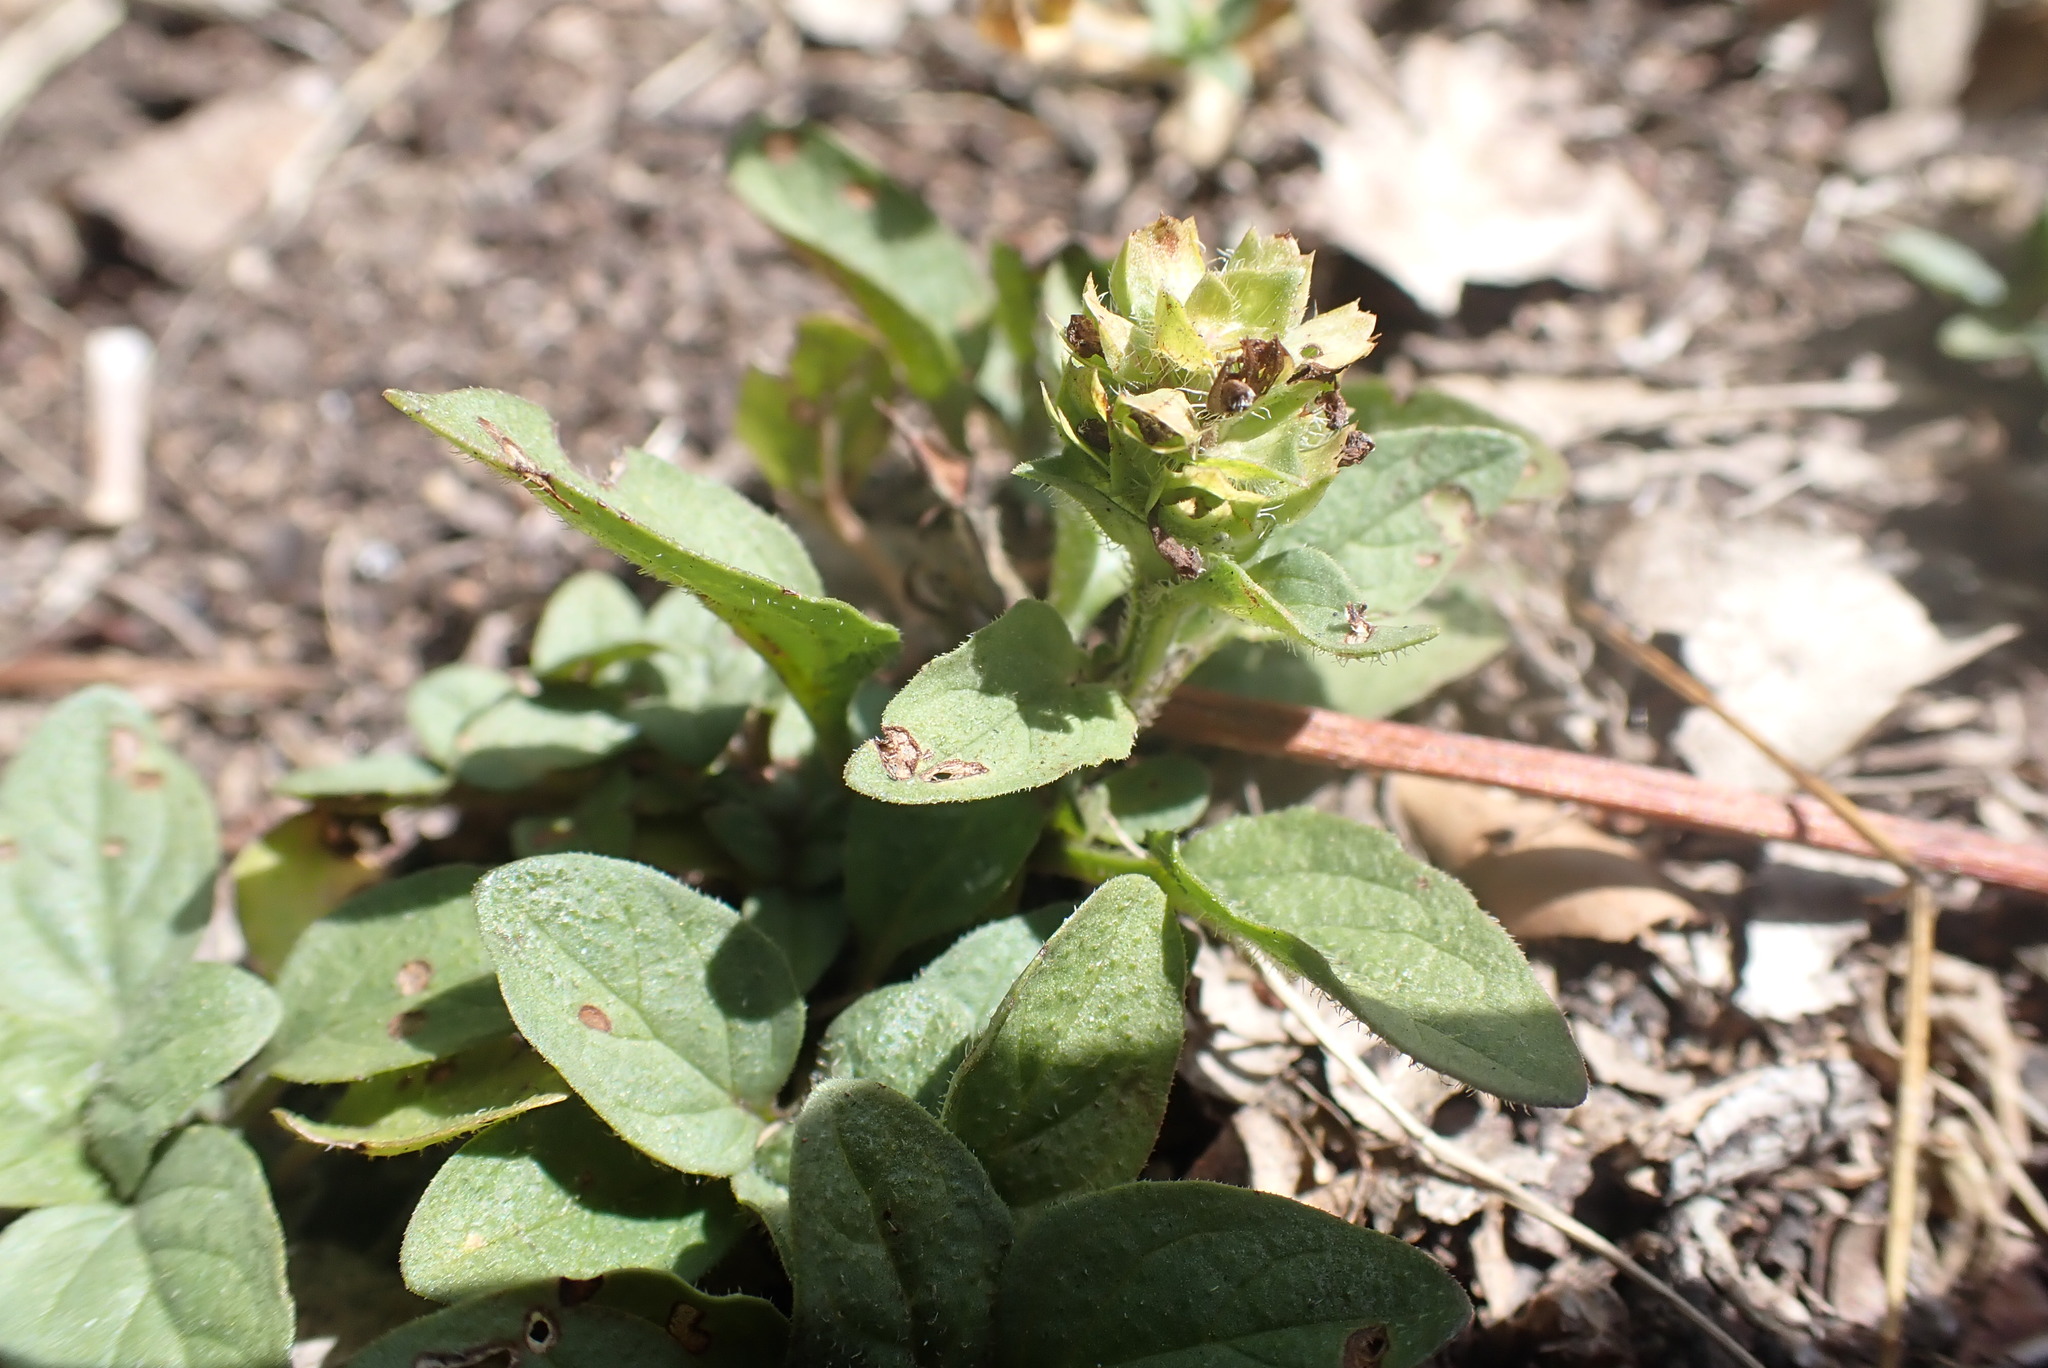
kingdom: Plantae
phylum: Tracheophyta
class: Magnoliopsida
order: Lamiales
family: Lamiaceae
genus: Prunella
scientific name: Prunella vulgaris
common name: Heal-all
